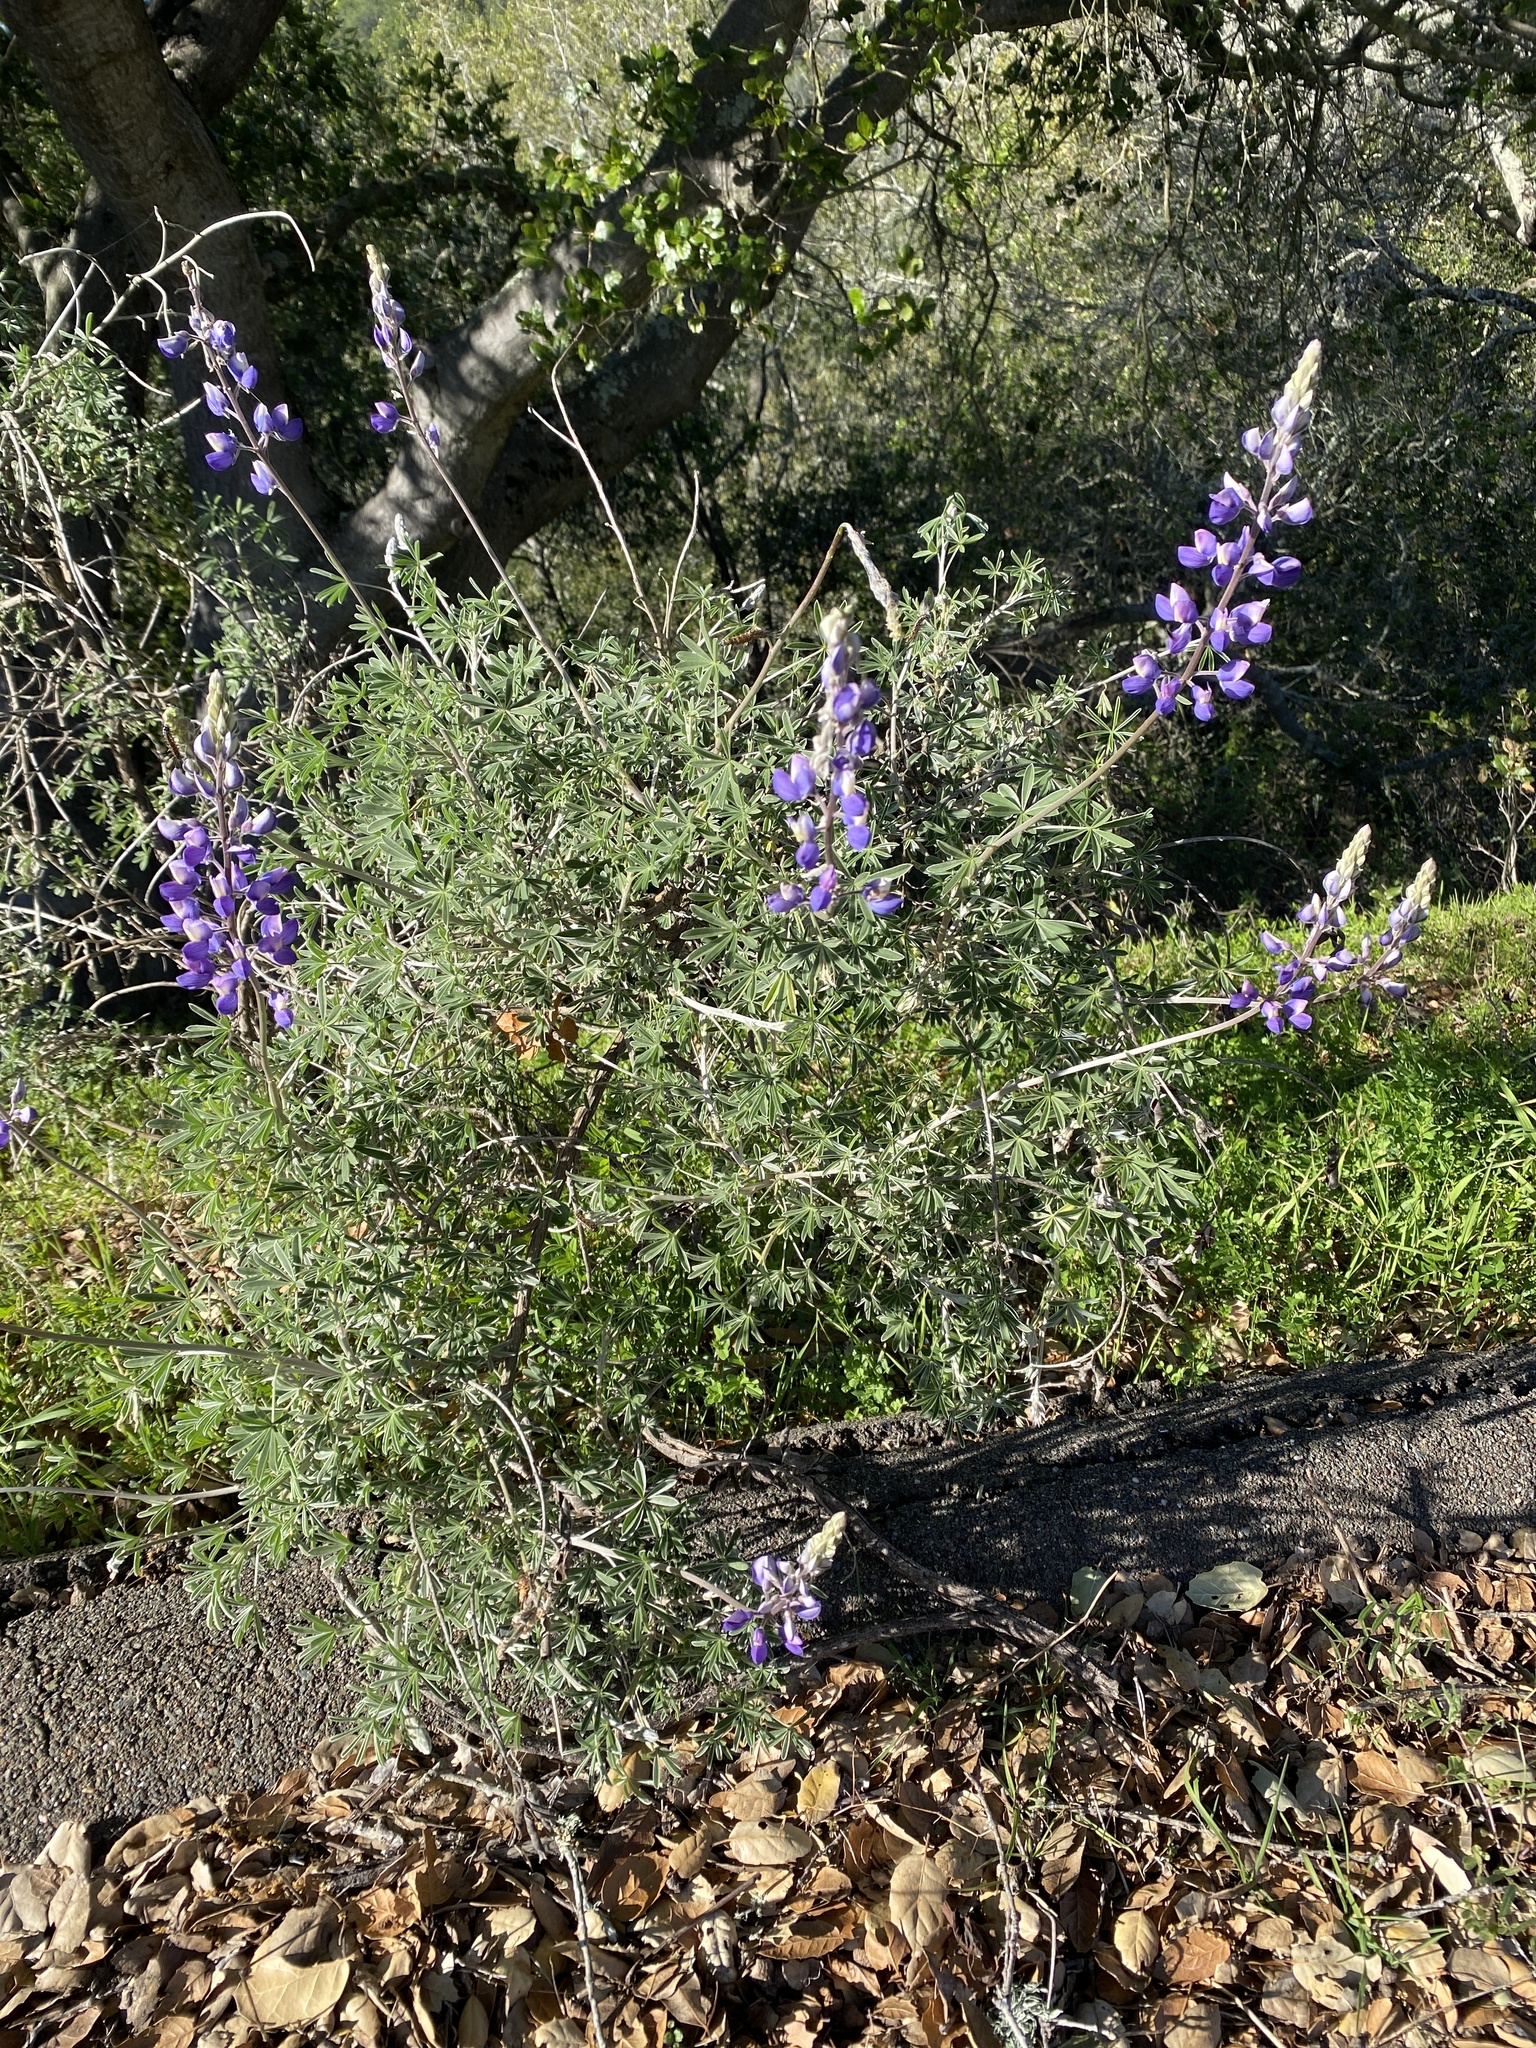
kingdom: Plantae
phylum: Tracheophyta
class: Magnoliopsida
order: Fabales
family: Fabaceae
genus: Lupinus
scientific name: Lupinus albifrons
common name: Foothill lupine
